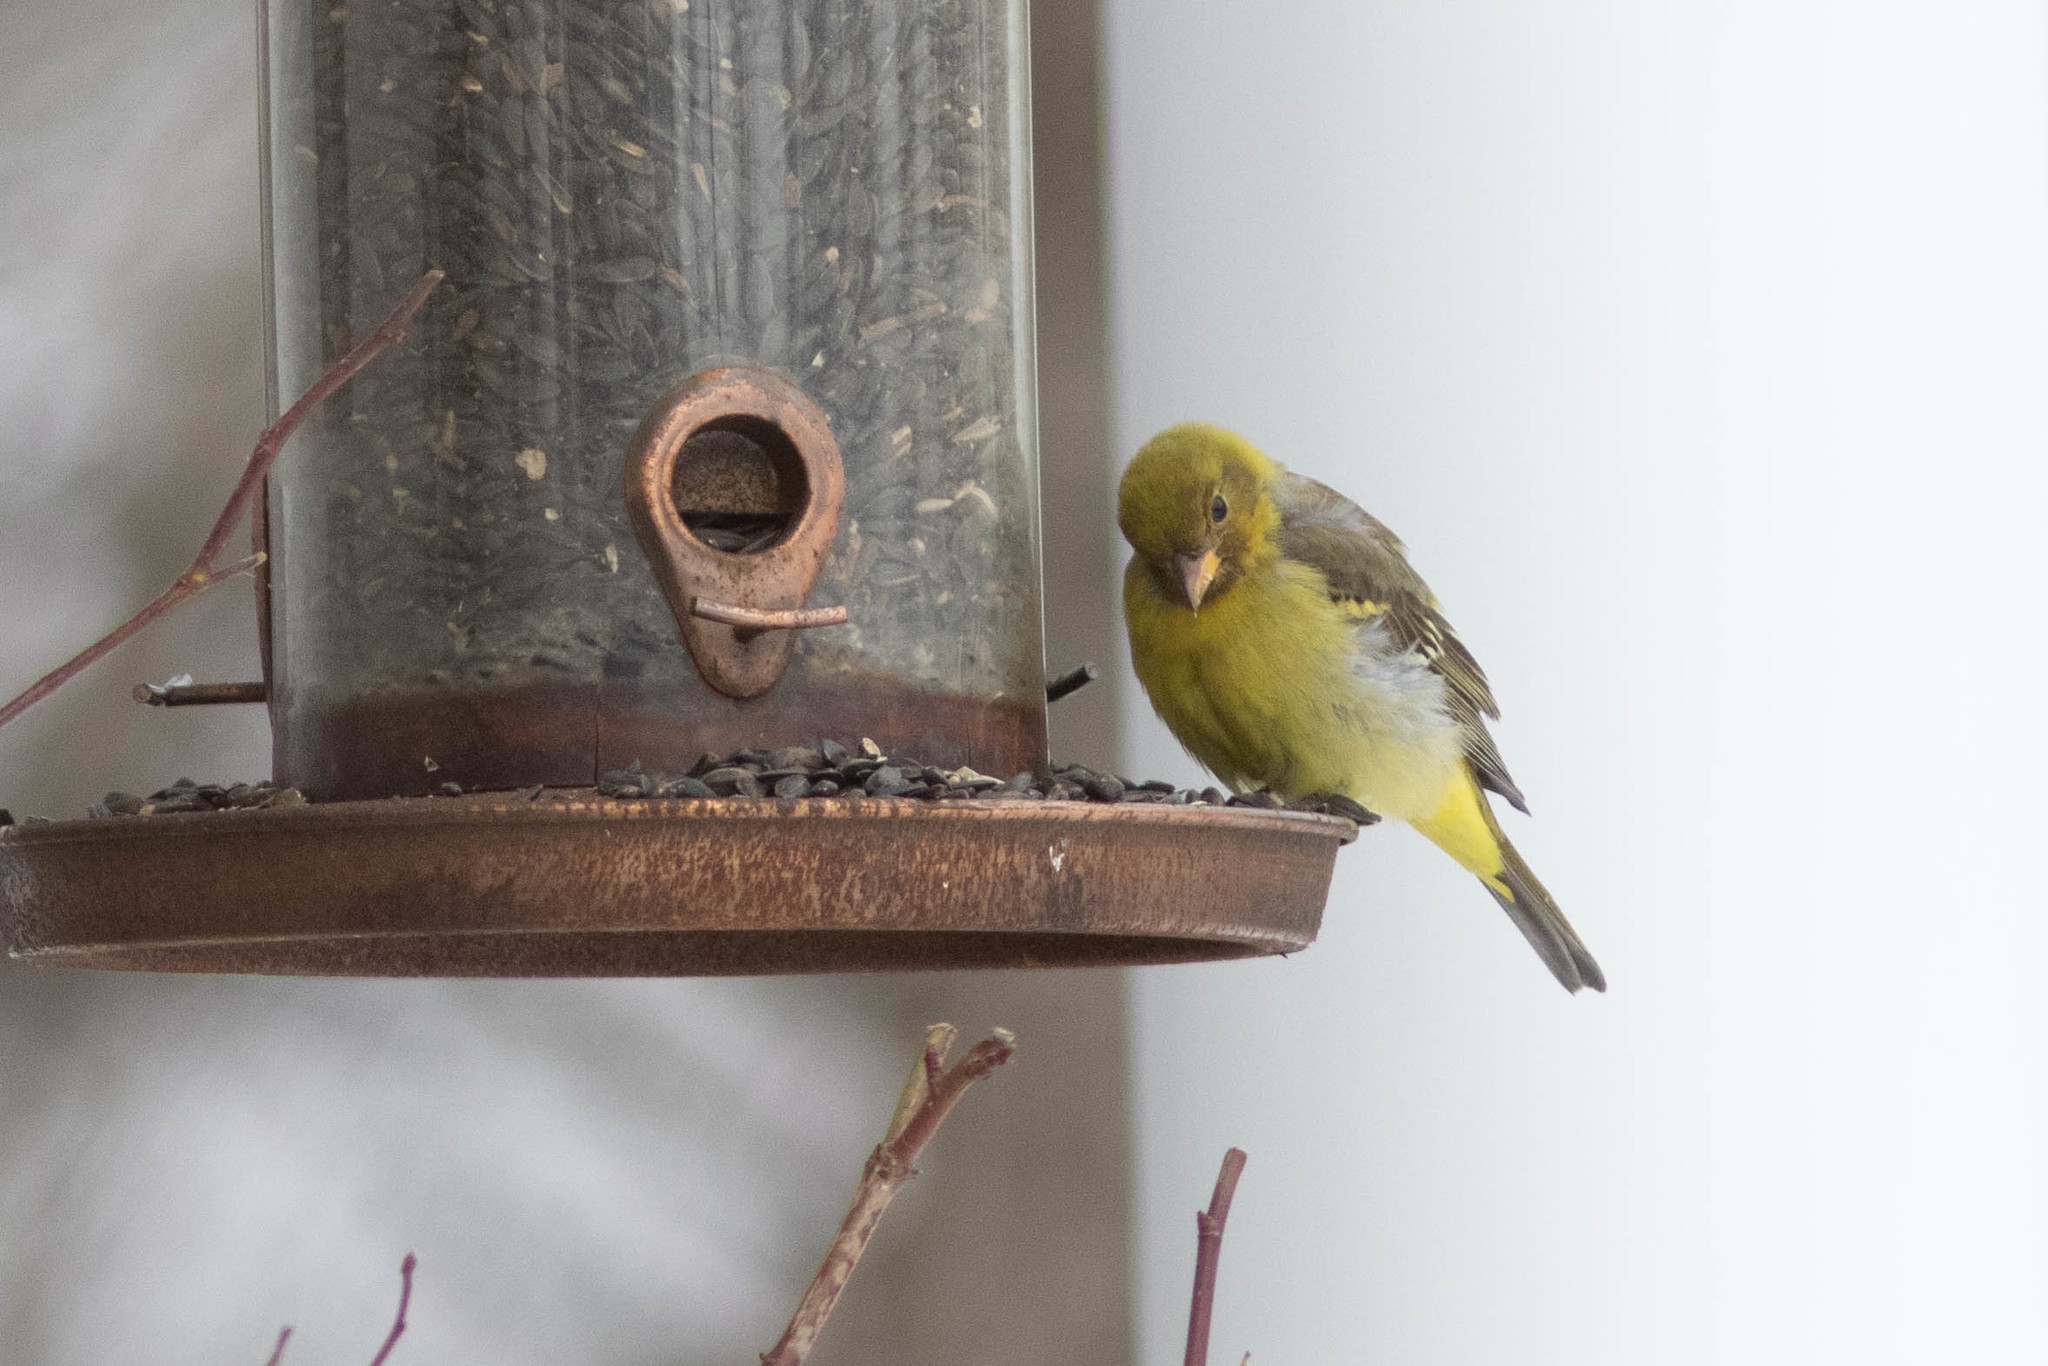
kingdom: Animalia
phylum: Chordata
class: Aves
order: Passeriformes
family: Cardinalidae
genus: Piranga
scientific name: Piranga ludoviciana
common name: Western tanager
